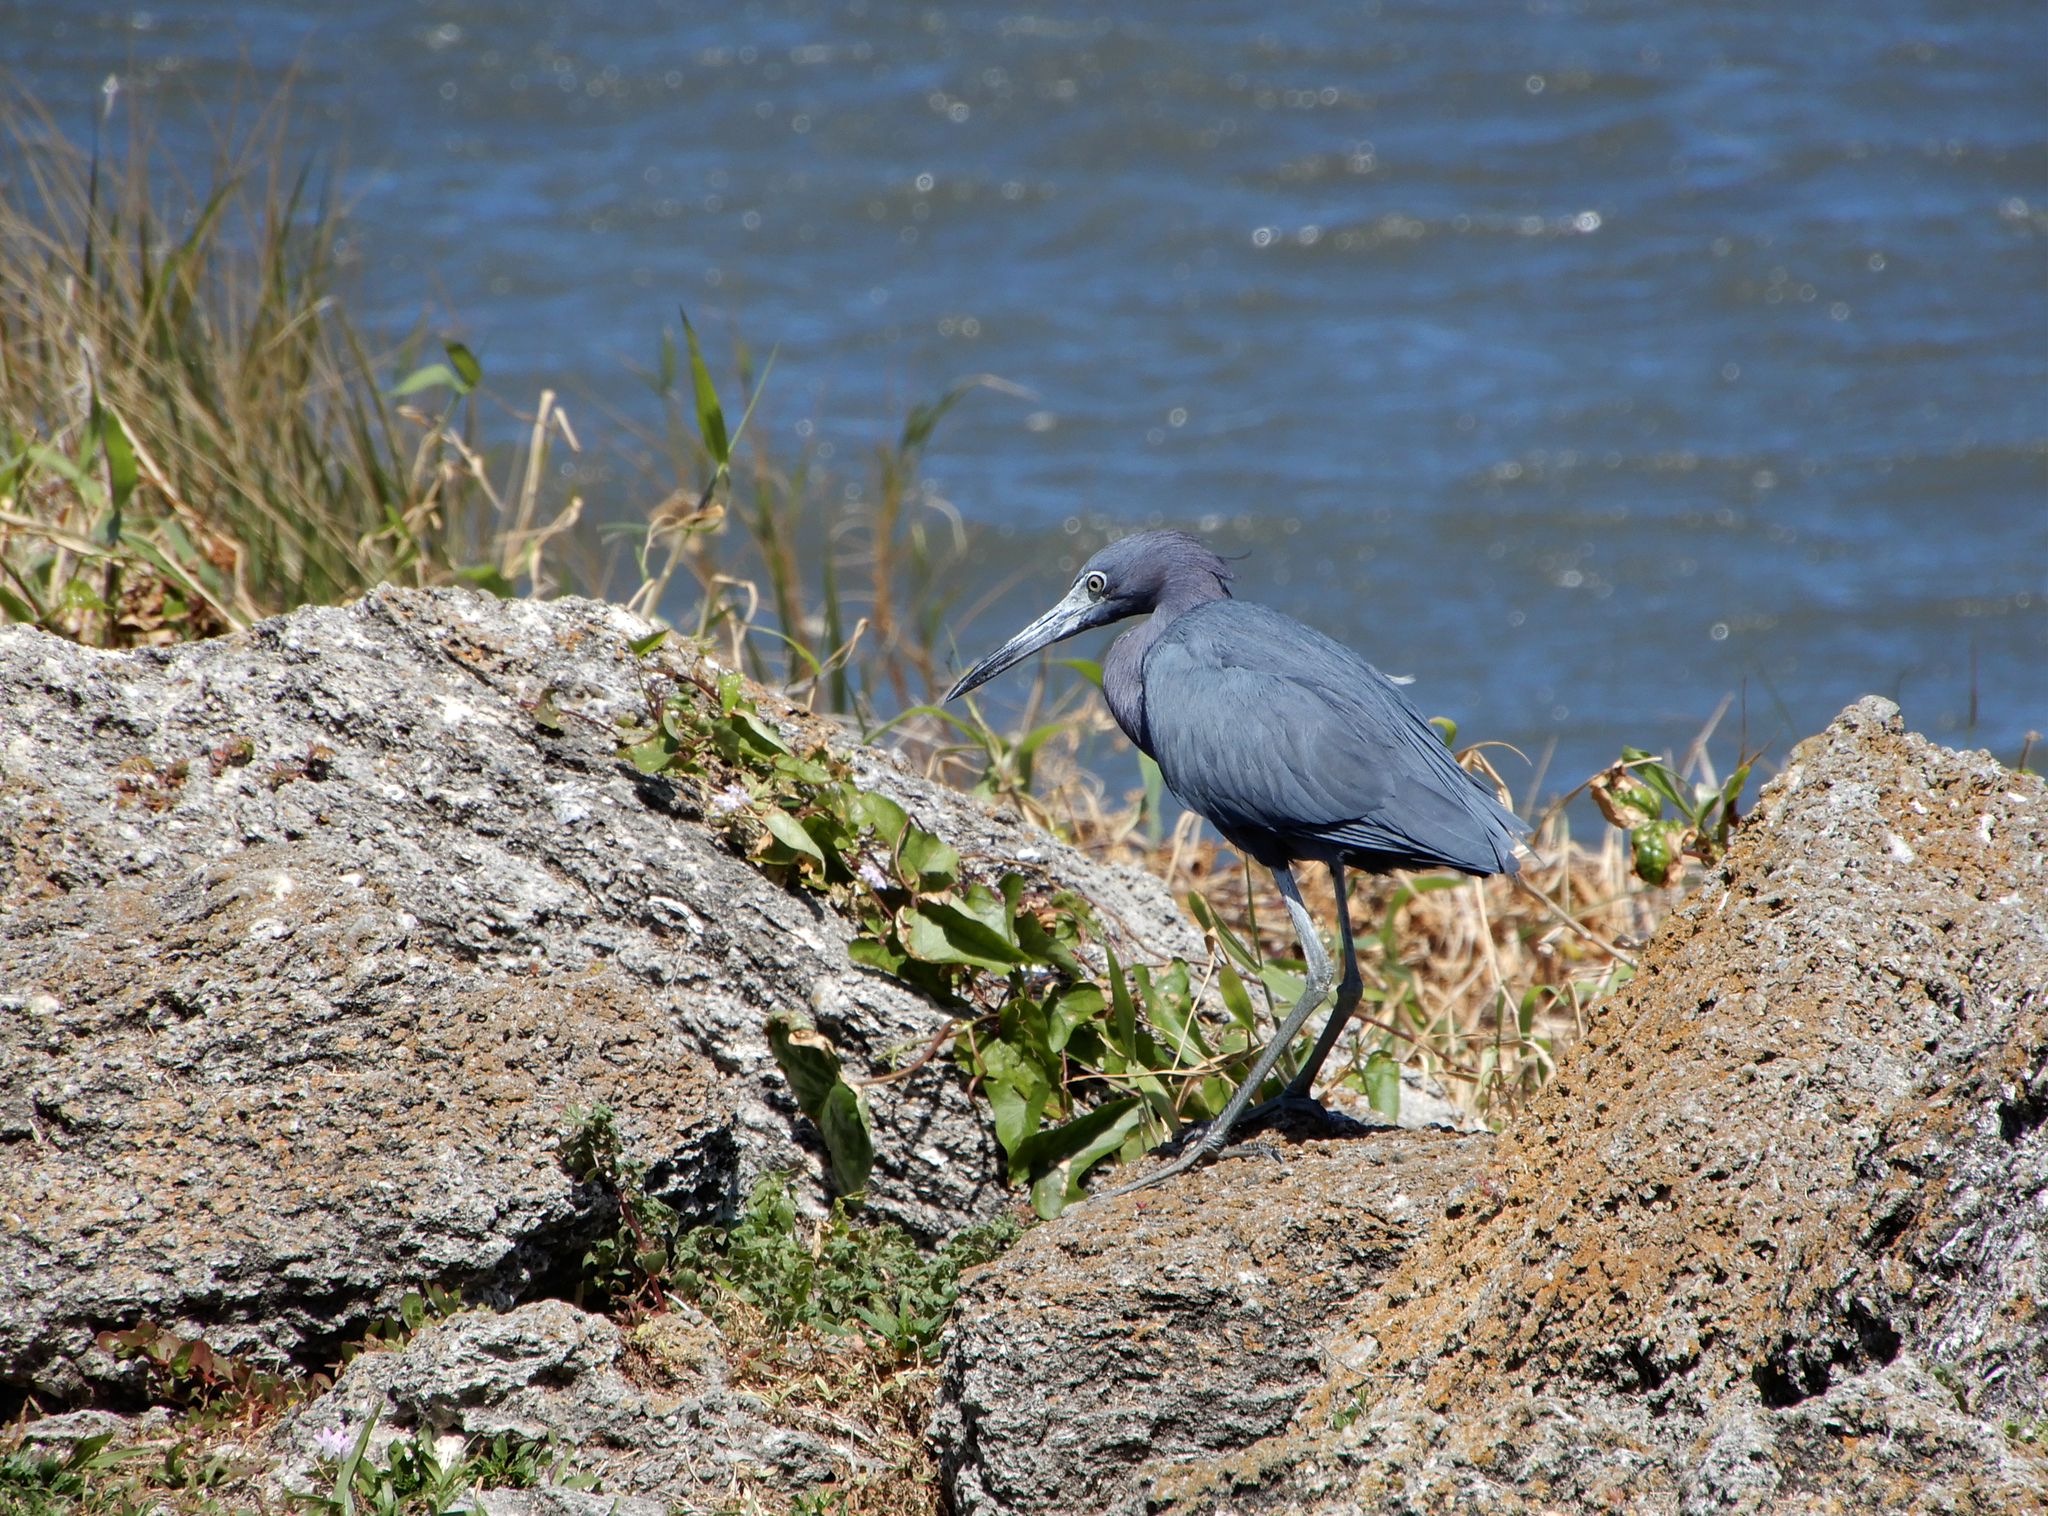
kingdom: Animalia
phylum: Chordata
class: Aves
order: Pelecaniformes
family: Ardeidae
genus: Egretta
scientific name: Egretta caerulea
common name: Little blue heron
